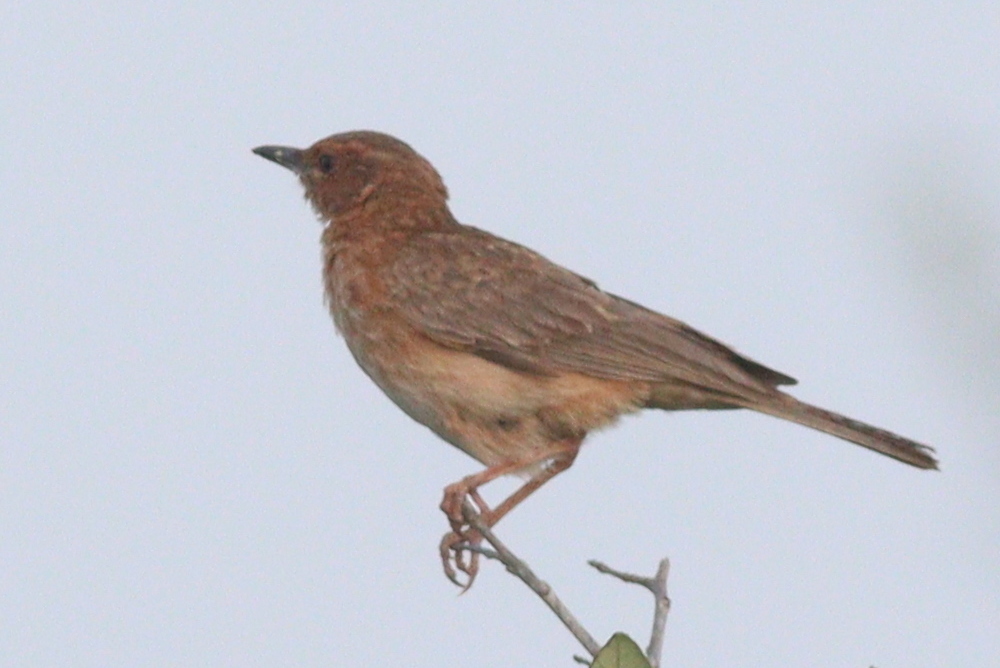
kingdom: Animalia
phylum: Chordata
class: Aves
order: Passeriformes
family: Alaudidae
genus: Calendulauda
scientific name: Calendulauda poecilosterna
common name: Pink-breasted lark
